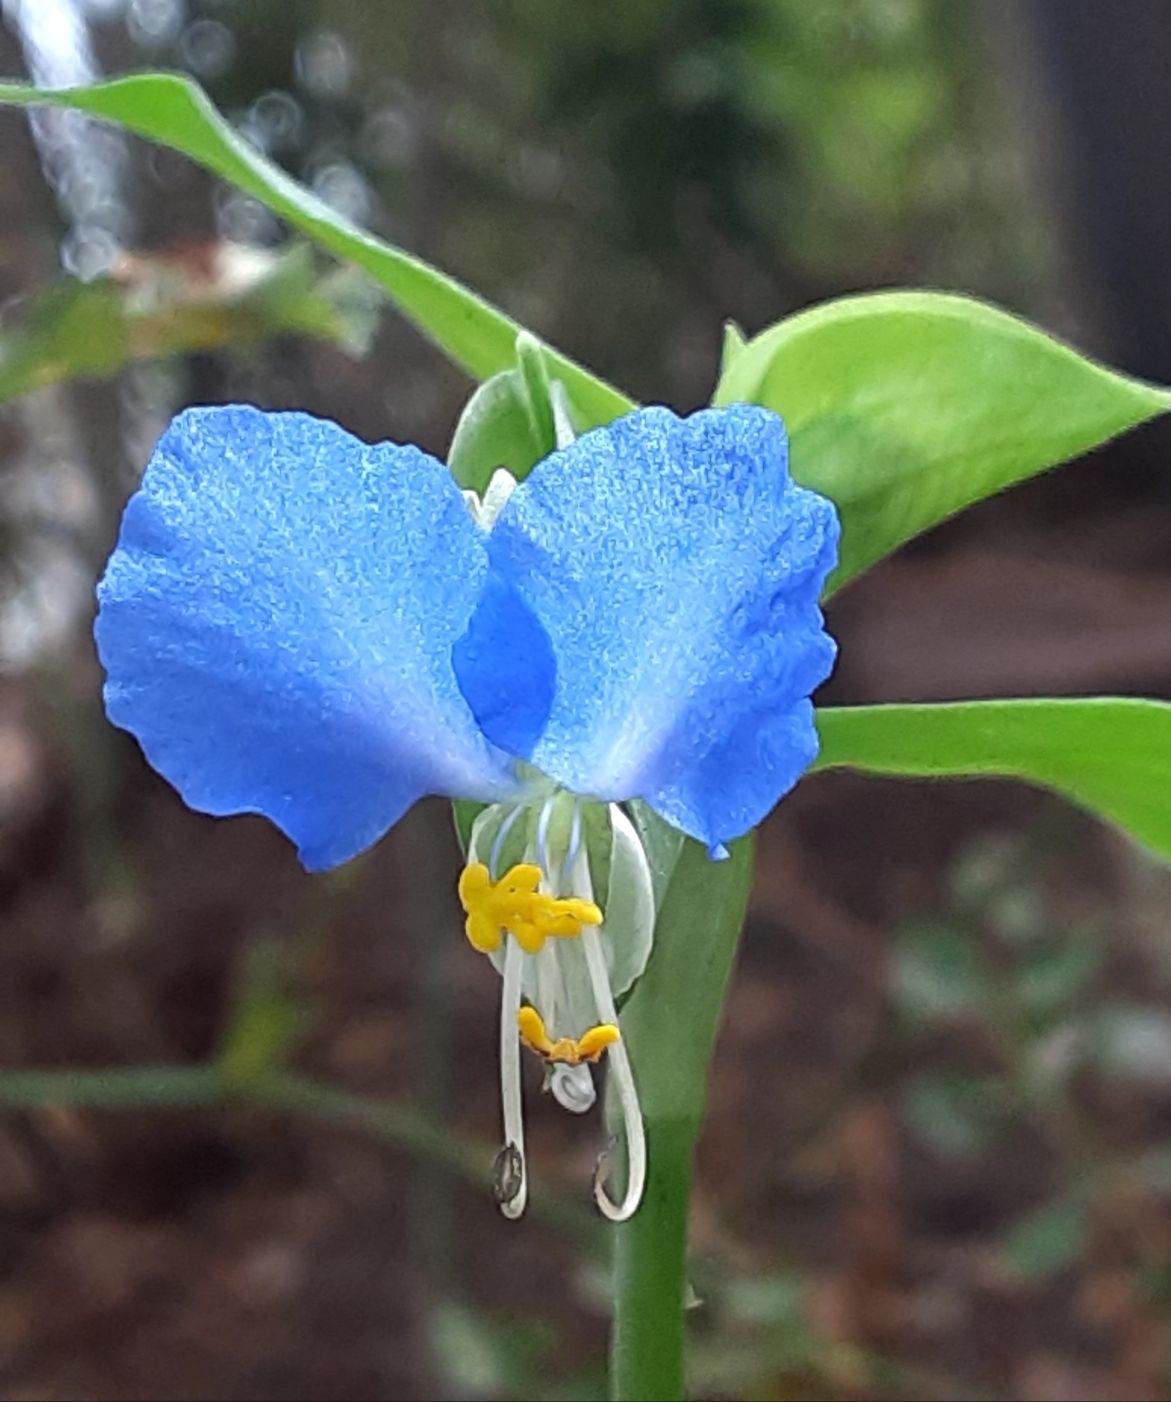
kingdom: Plantae
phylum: Tracheophyta
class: Liliopsida
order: Commelinales
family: Commelinaceae
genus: Commelina
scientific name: Commelina communis
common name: Asiatic dayflower
